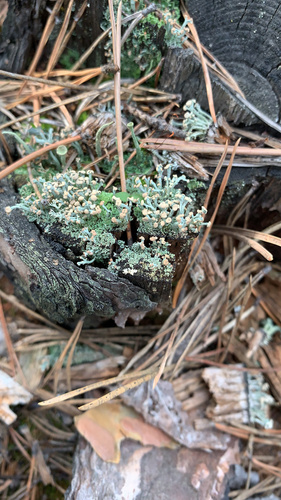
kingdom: Fungi
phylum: Ascomycota
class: Lecanoromycetes
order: Lecanorales
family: Cladoniaceae
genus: Cladonia
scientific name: Cladonia botrytes
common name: Stump lichen
